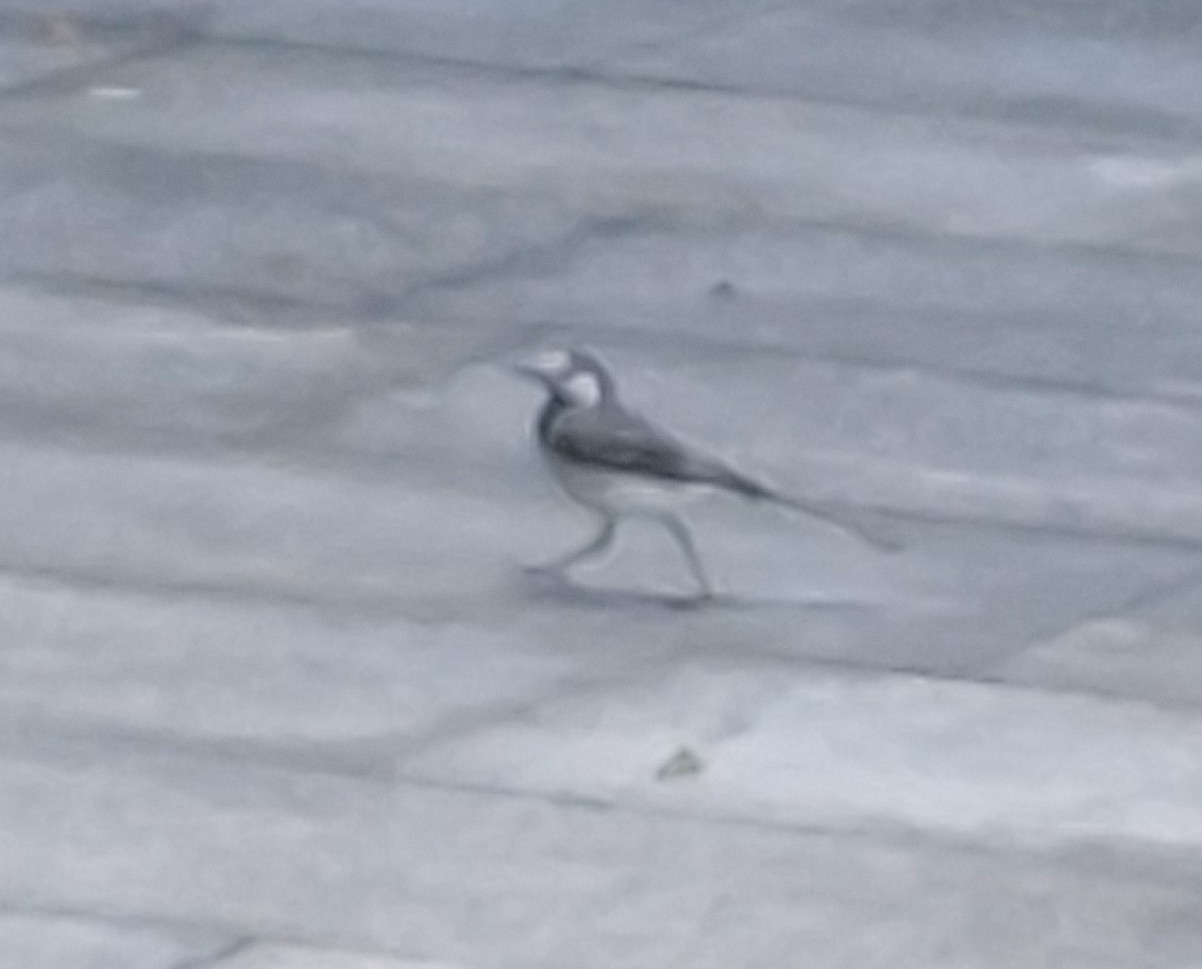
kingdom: Animalia
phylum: Chordata
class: Aves
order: Passeriformes
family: Motacillidae
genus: Motacilla
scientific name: Motacilla alba
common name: White wagtail
